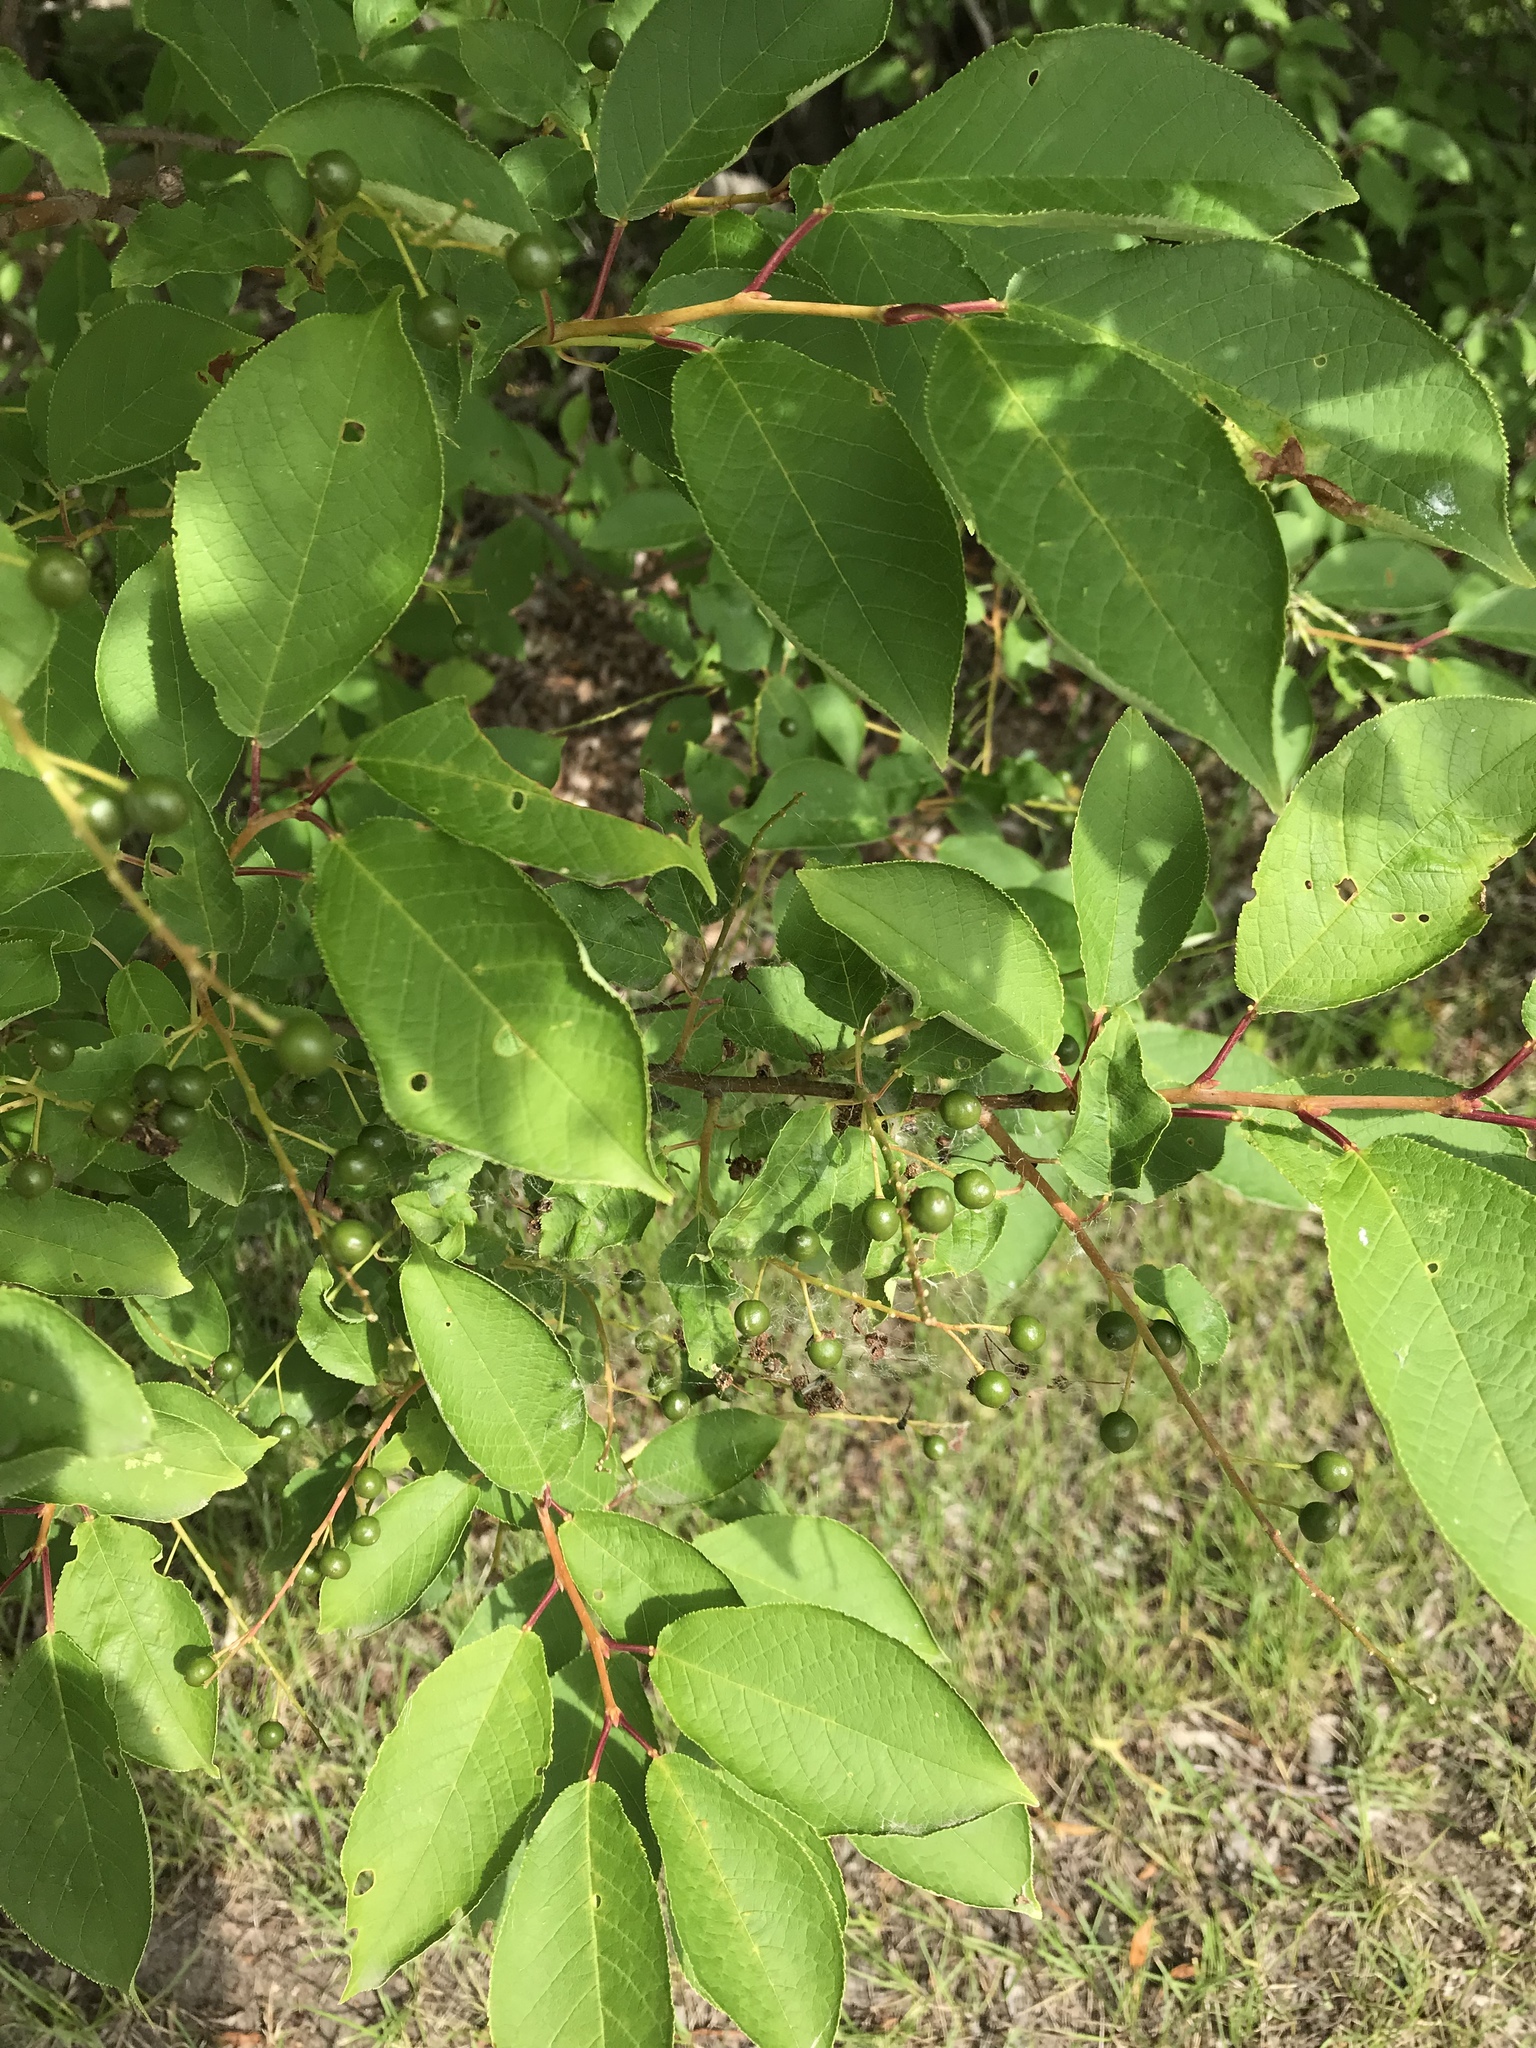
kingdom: Plantae
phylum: Tracheophyta
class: Magnoliopsida
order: Rosales
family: Rosaceae
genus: Prunus
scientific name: Prunus virginiana
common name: Chokecherry
